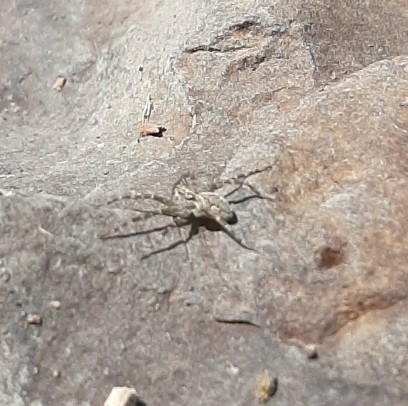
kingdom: Animalia
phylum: Arthropoda
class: Arachnida
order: Araneae
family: Pisauridae
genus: Dolomedes
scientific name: Dolomedes scriptus
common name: Striped fishing spider
